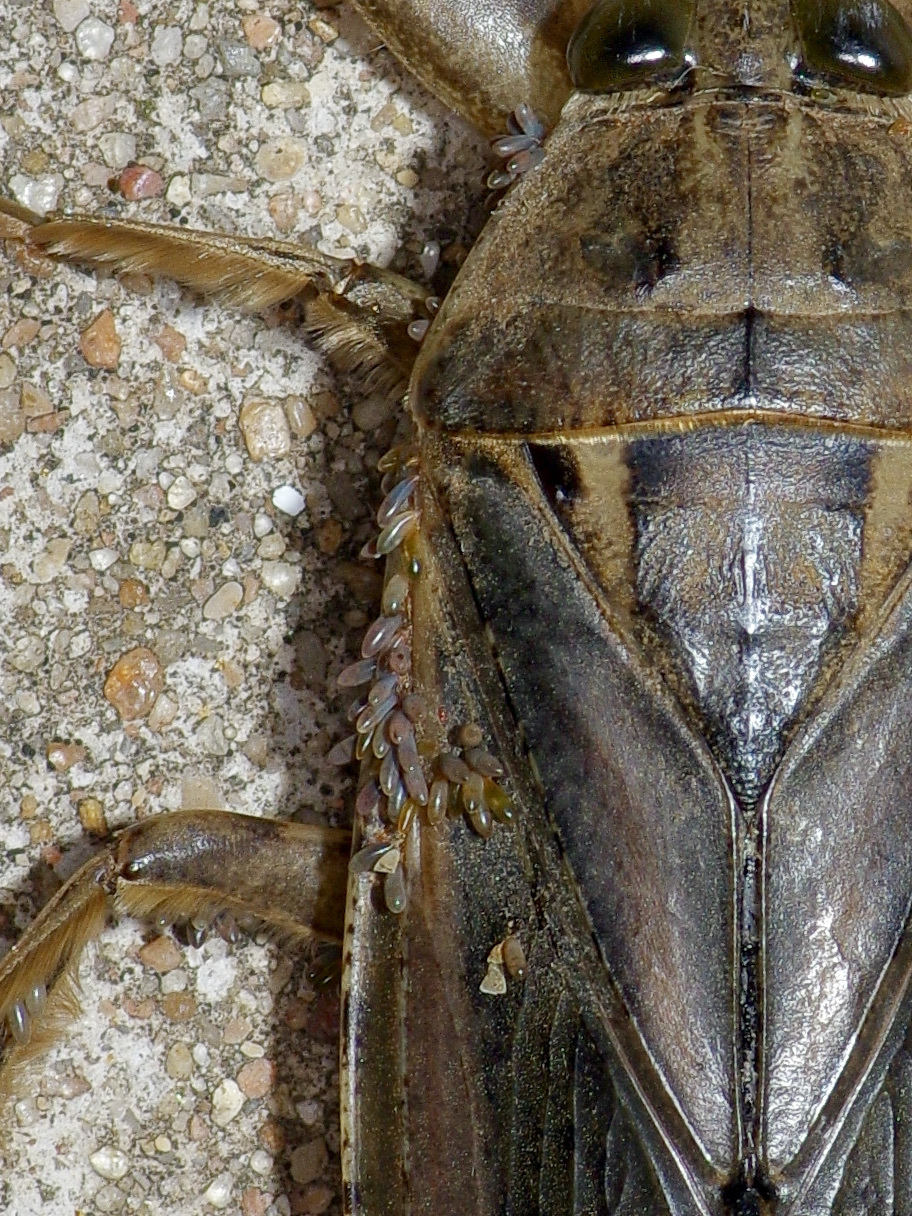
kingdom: Animalia
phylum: Arthropoda
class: Insecta
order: Hemiptera
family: Belostomatidae
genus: Lethocerus
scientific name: Lethocerus uhleri
